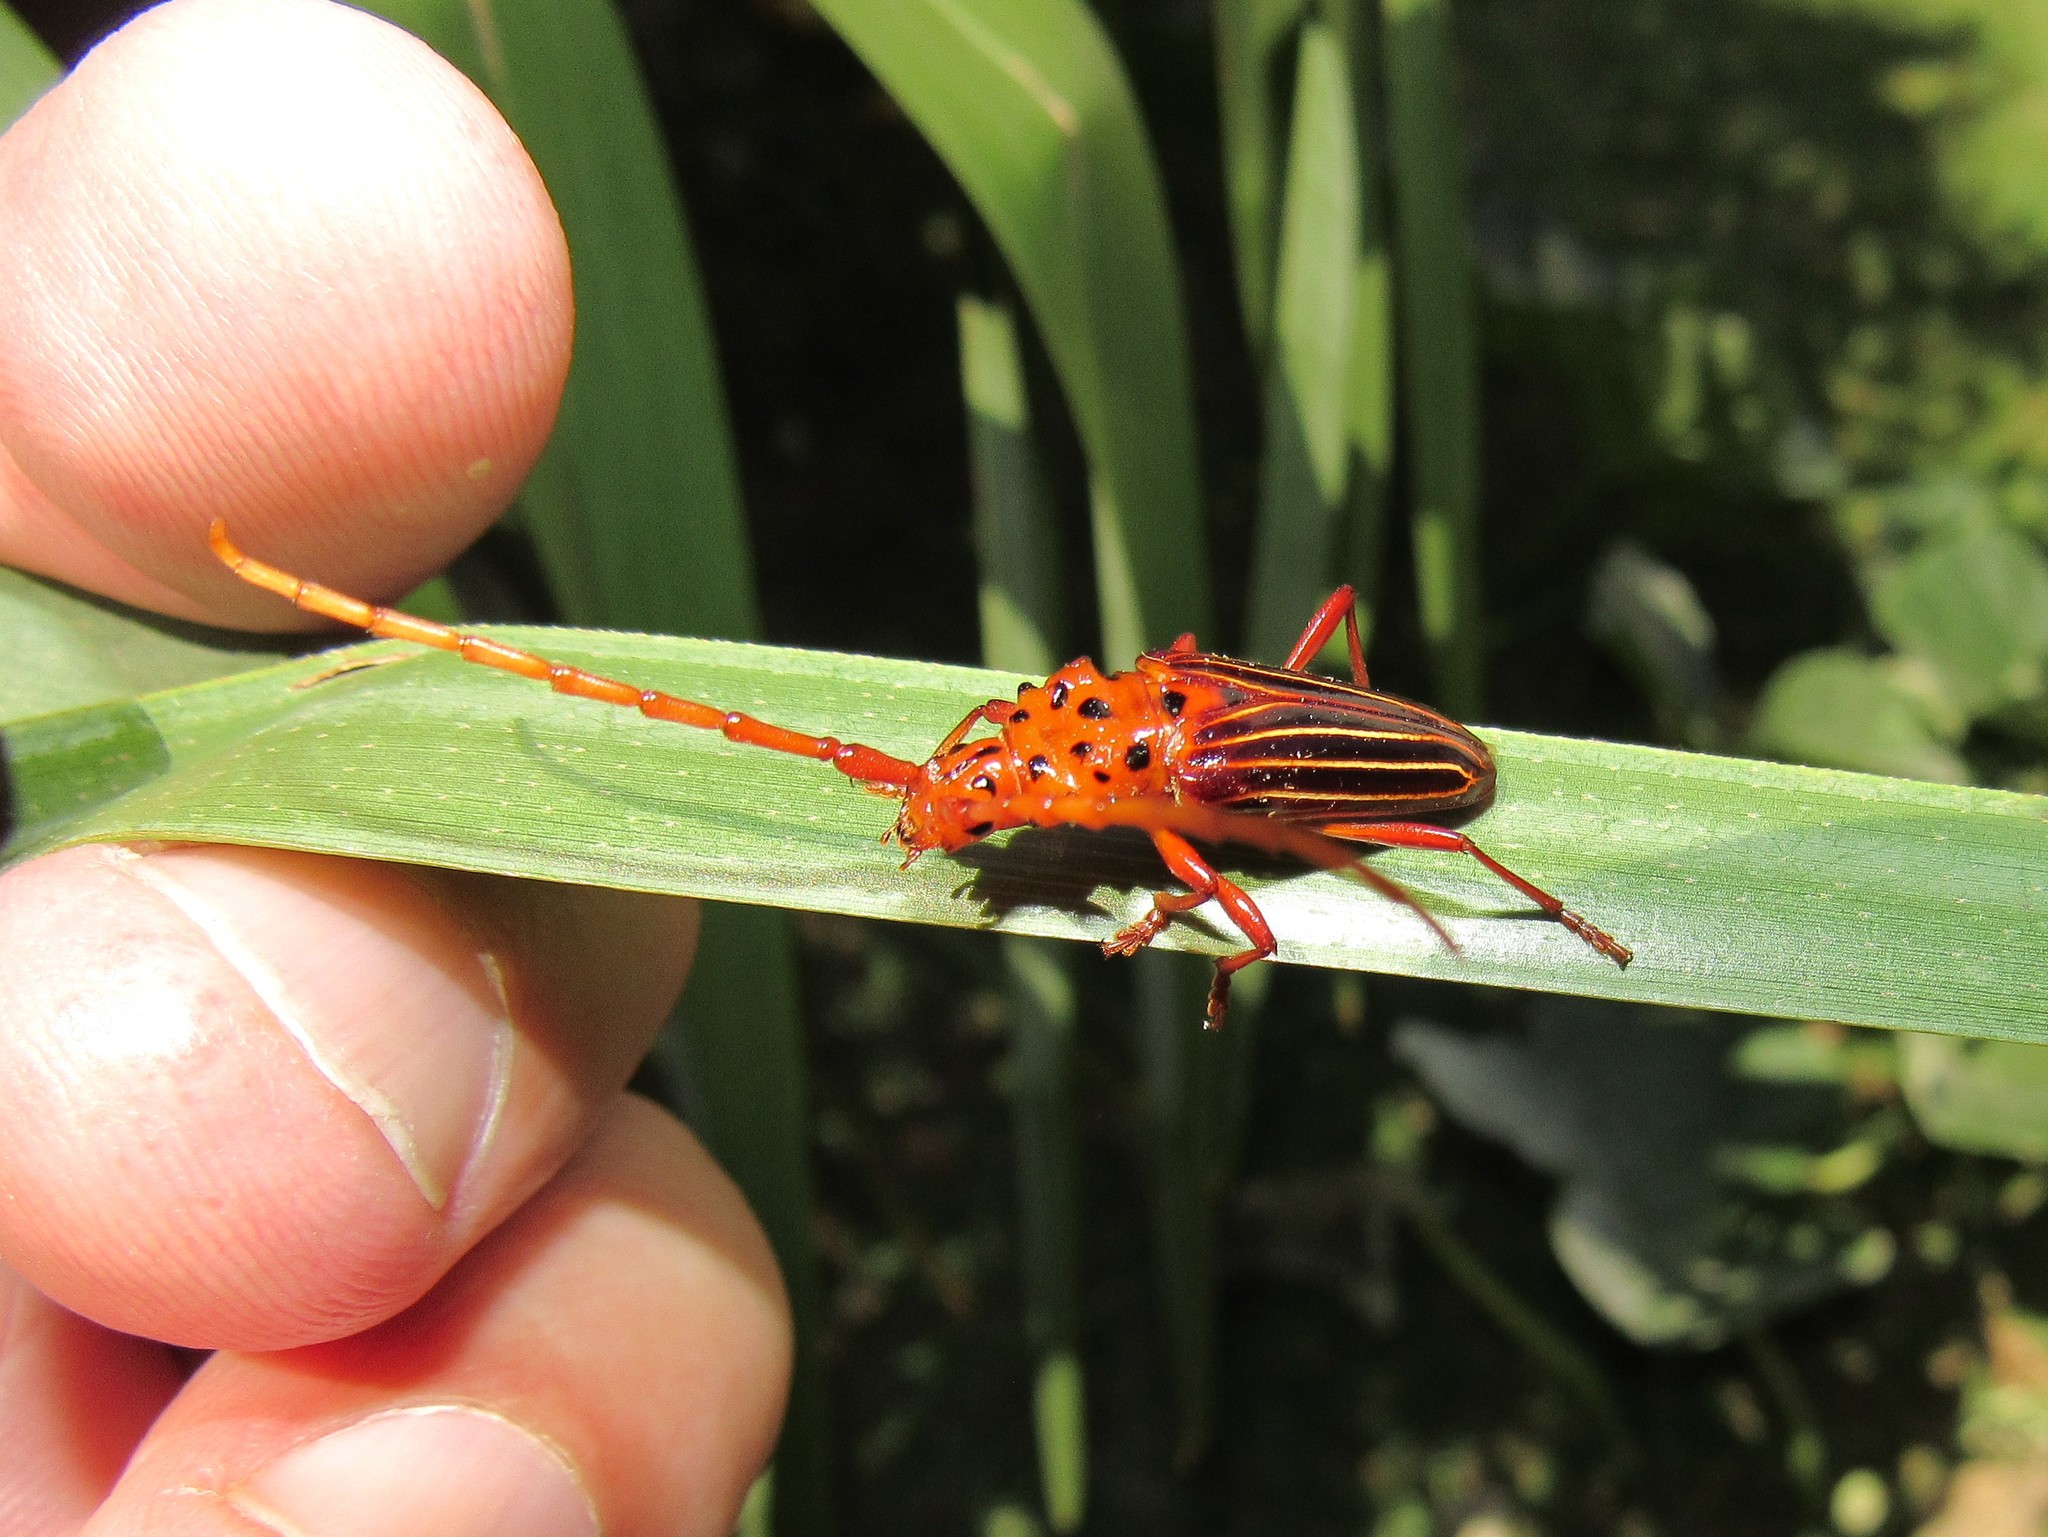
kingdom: Animalia
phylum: Arthropoda
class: Insecta
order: Coleoptera
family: Cerambycidae
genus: Chydarteres
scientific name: Chydarteres striatus
